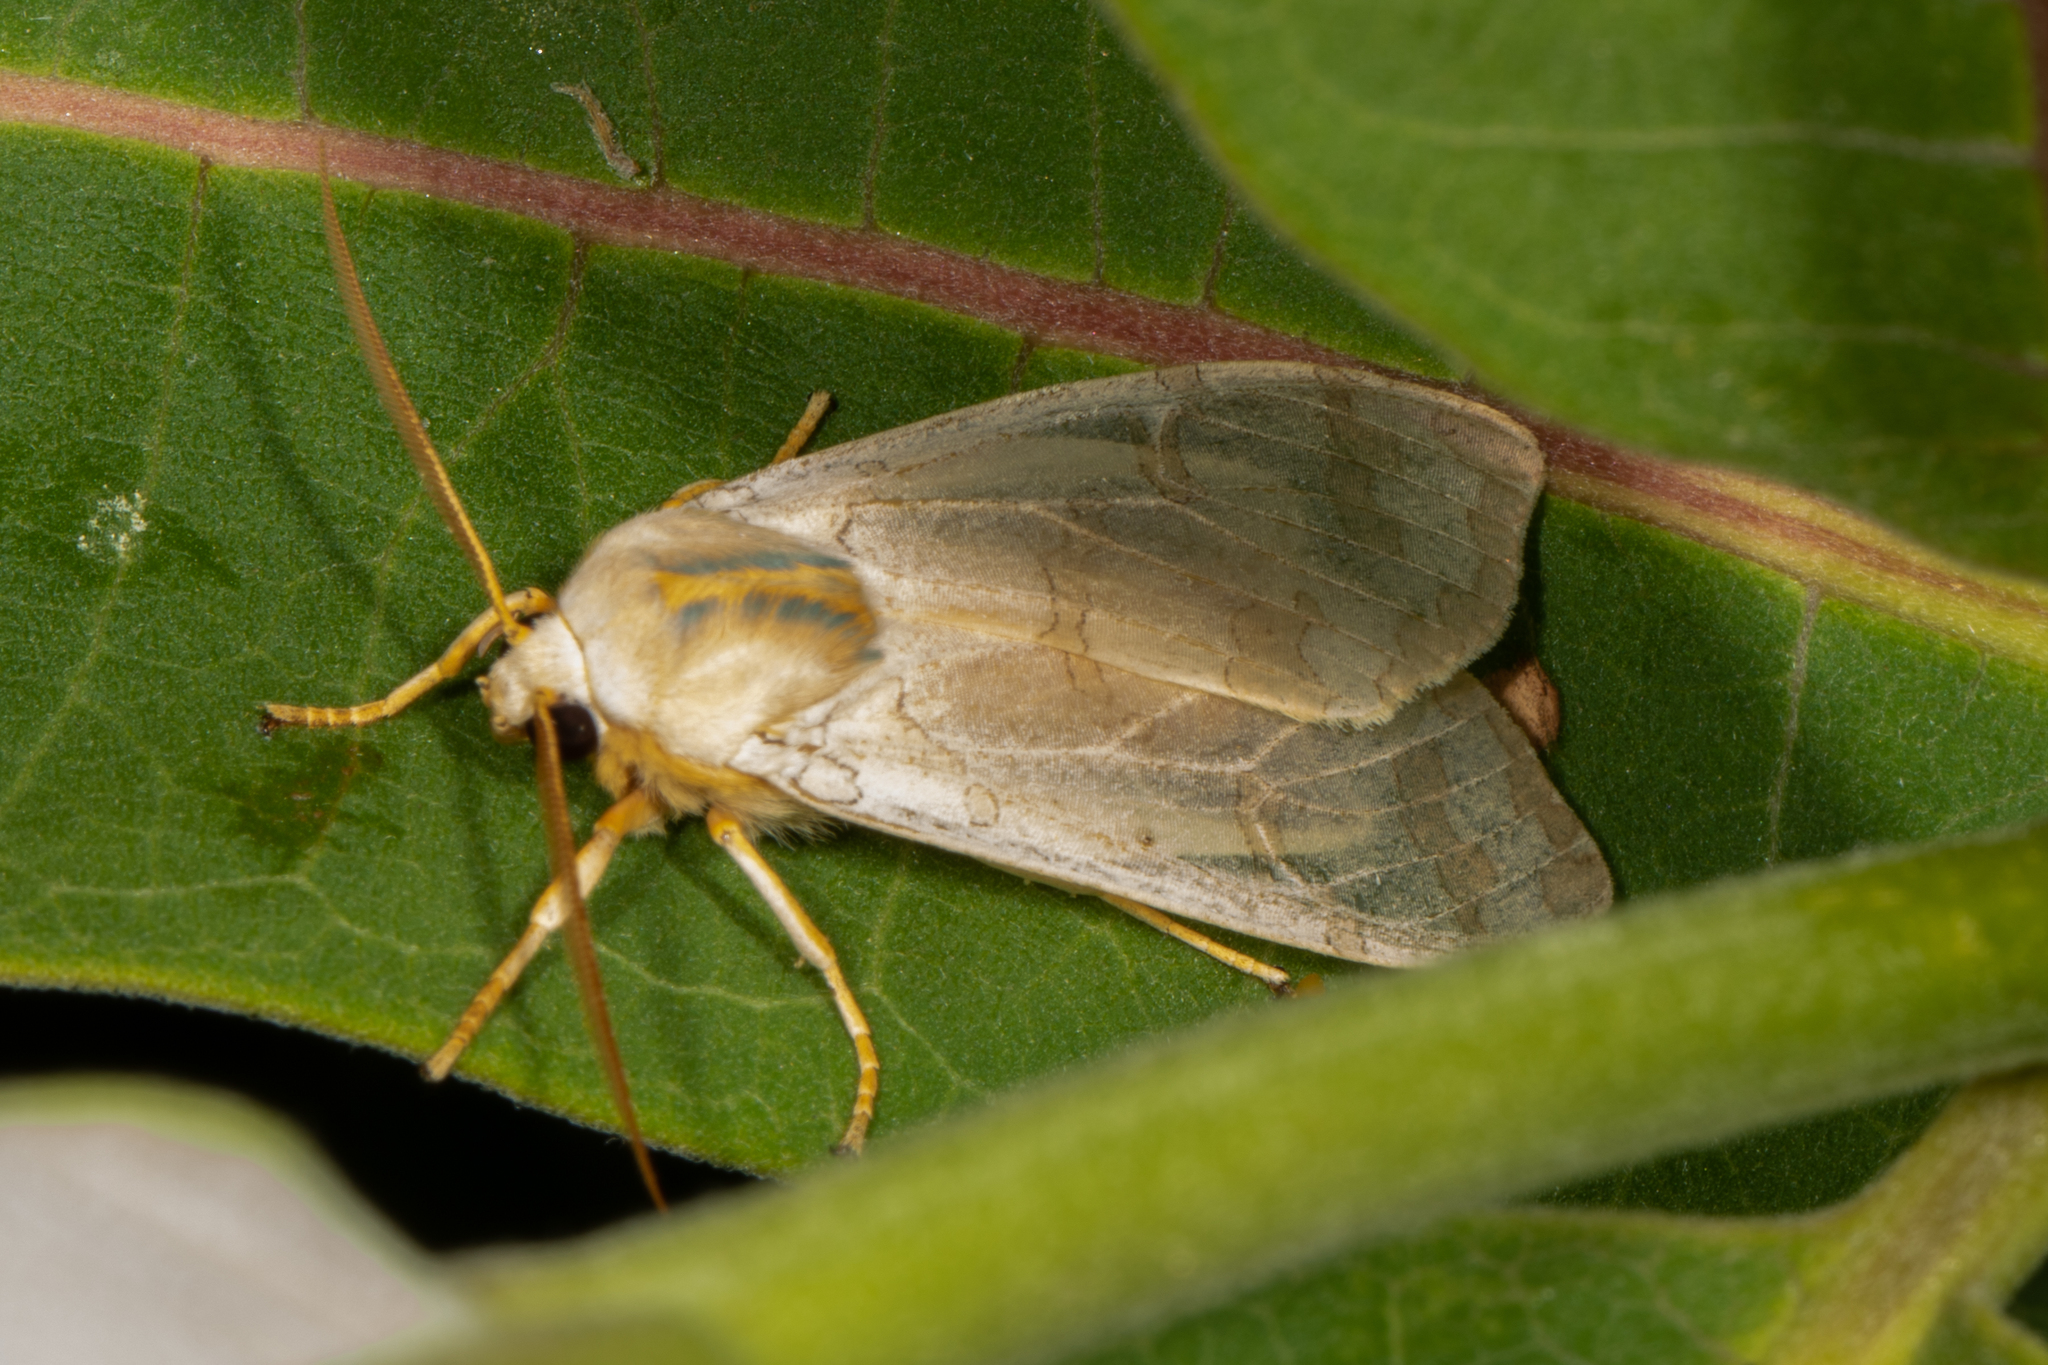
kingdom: Animalia
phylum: Arthropoda
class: Insecta
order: Lepidoptera
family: Erebidae
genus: Halysidota
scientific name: Halysidota
